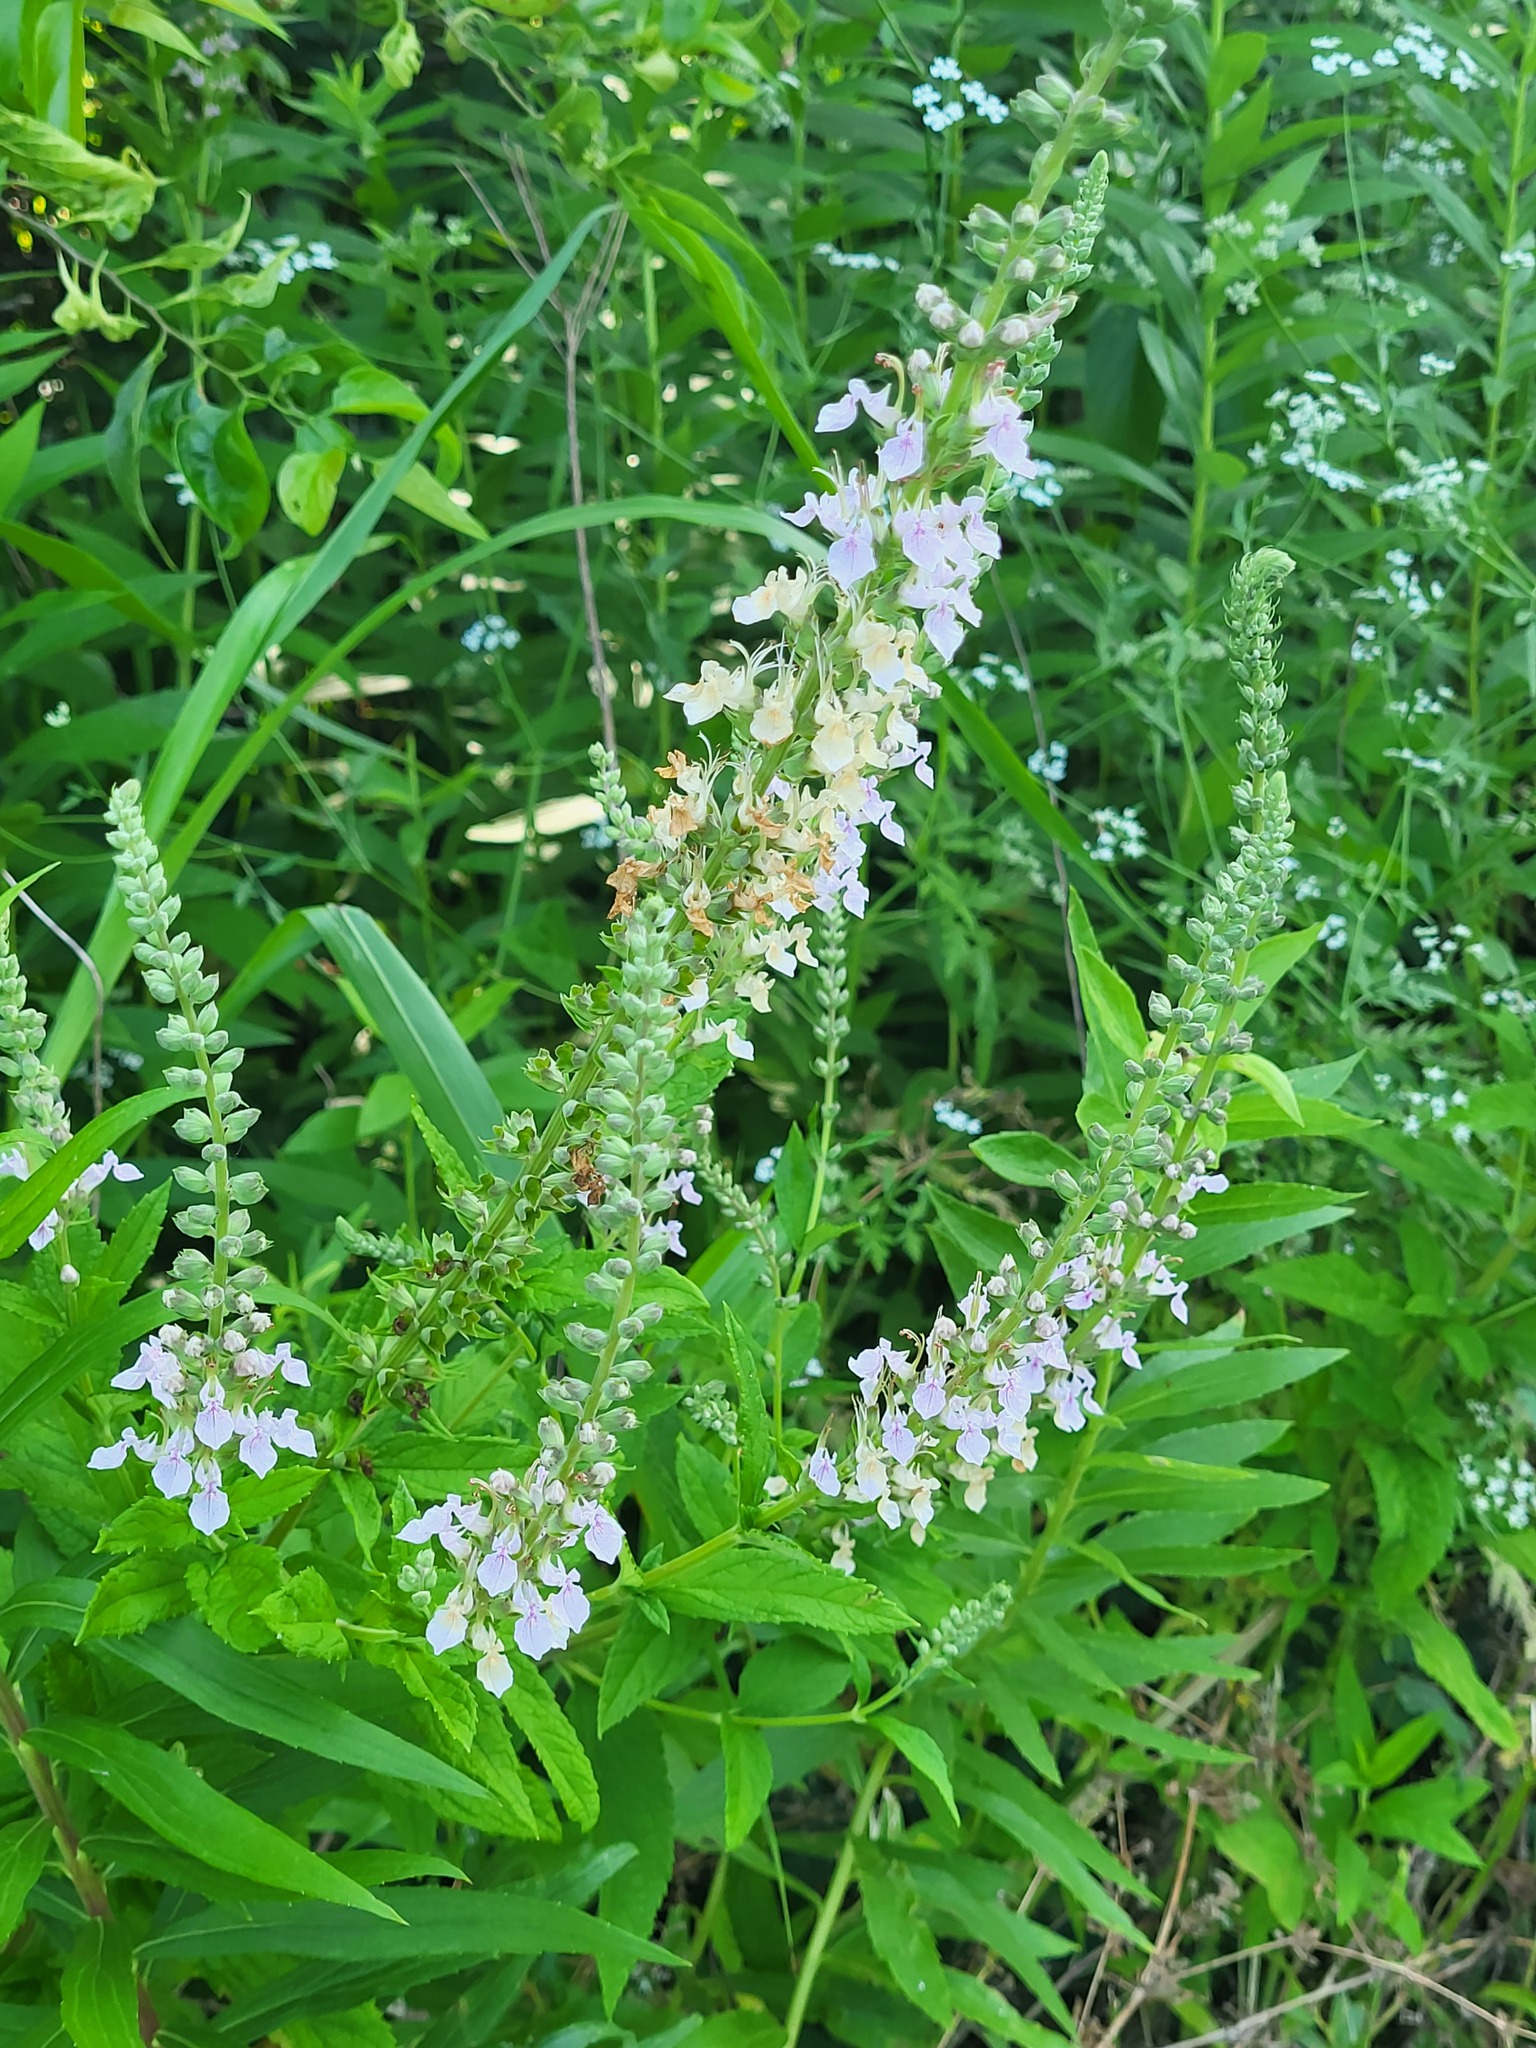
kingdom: Plantae
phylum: Tracheophyta
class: Magnoliopsida
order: Lamiales
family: Lamiaceae
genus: Teucrium
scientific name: Teucrium canadense
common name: American germander
